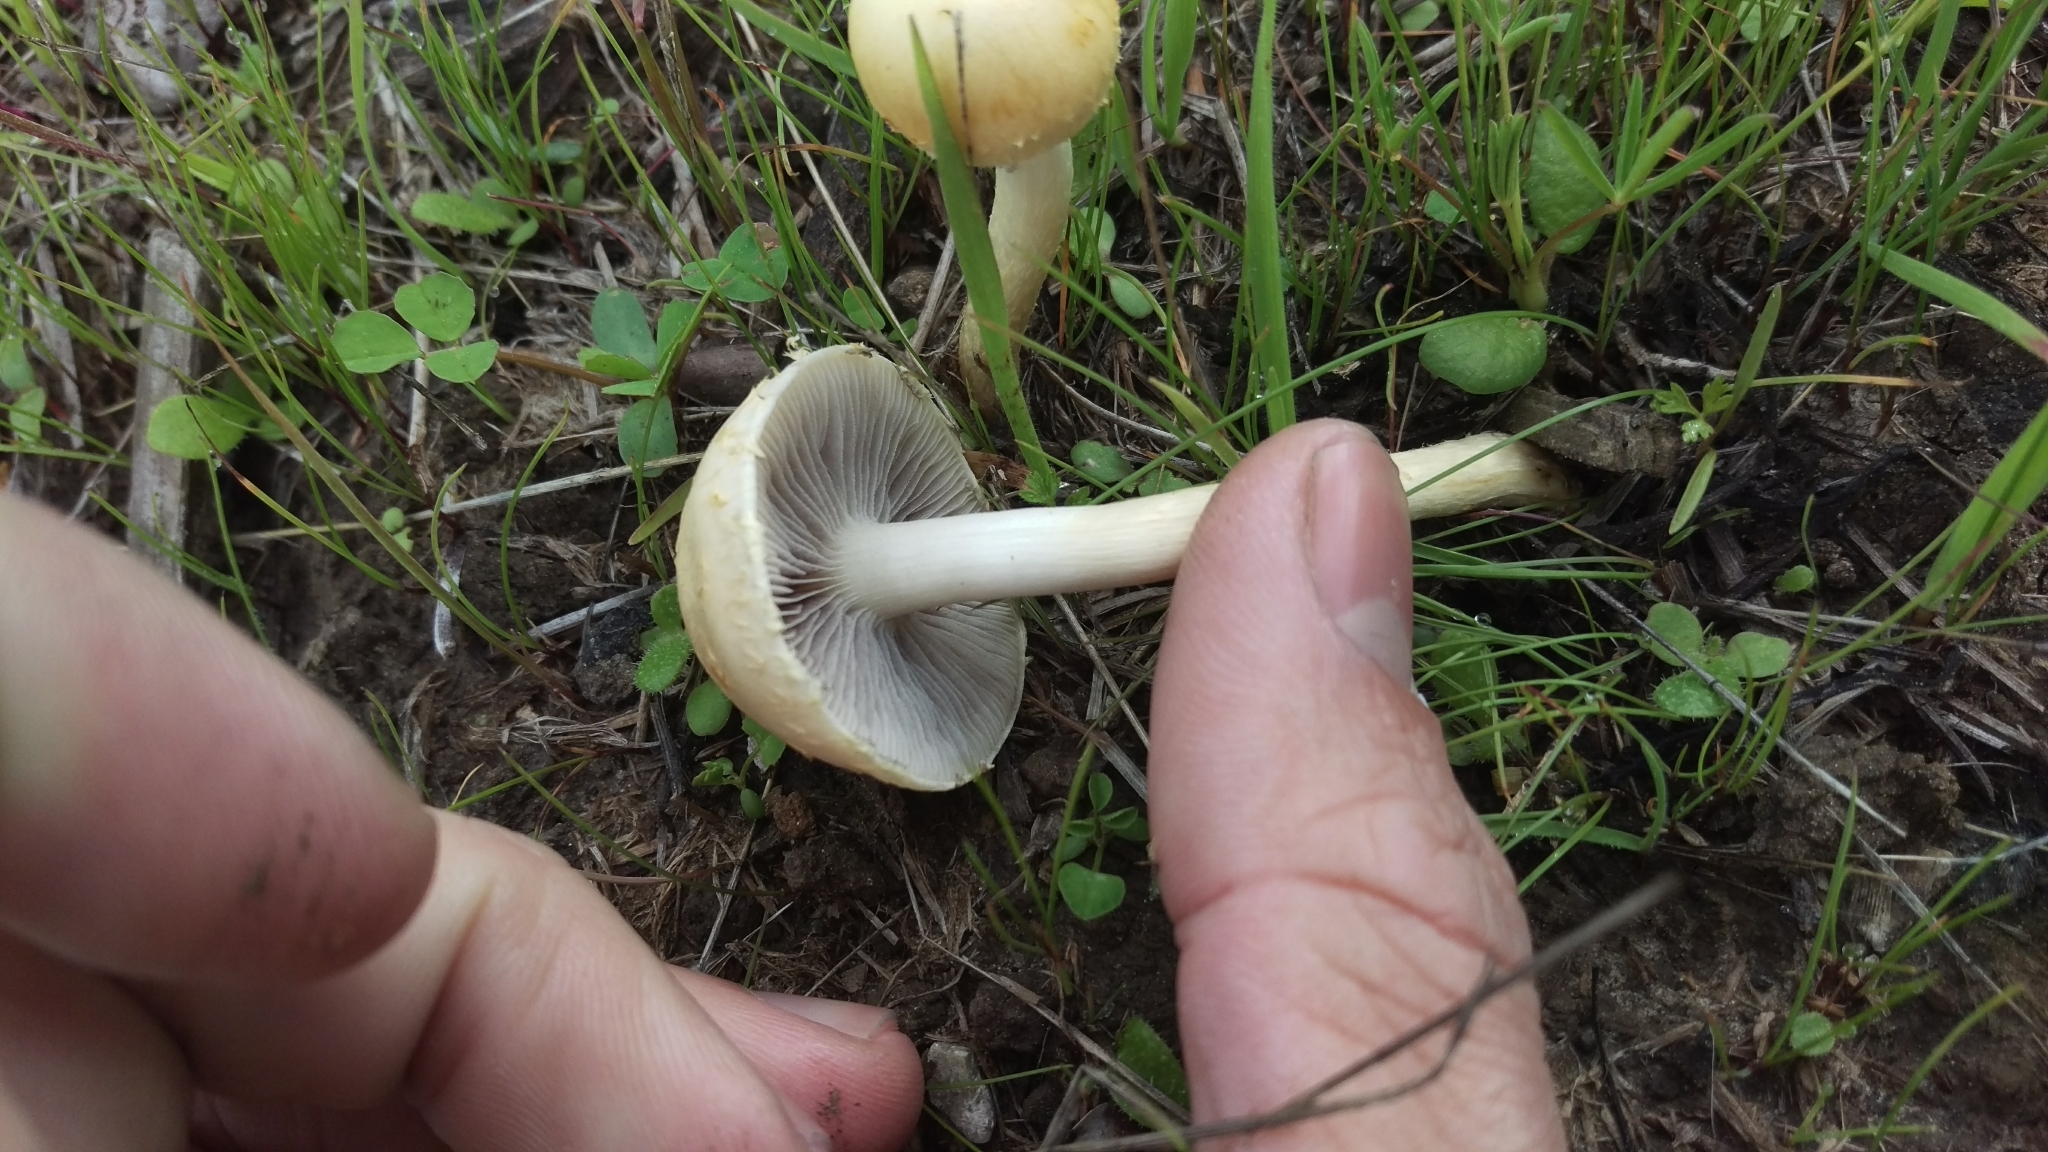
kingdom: Fungi
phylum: Basidiomycota
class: Agaricomycetes
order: Agaricales
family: Strophariaceae
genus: Leratiomyces
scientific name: Leratiomyces percevalii
